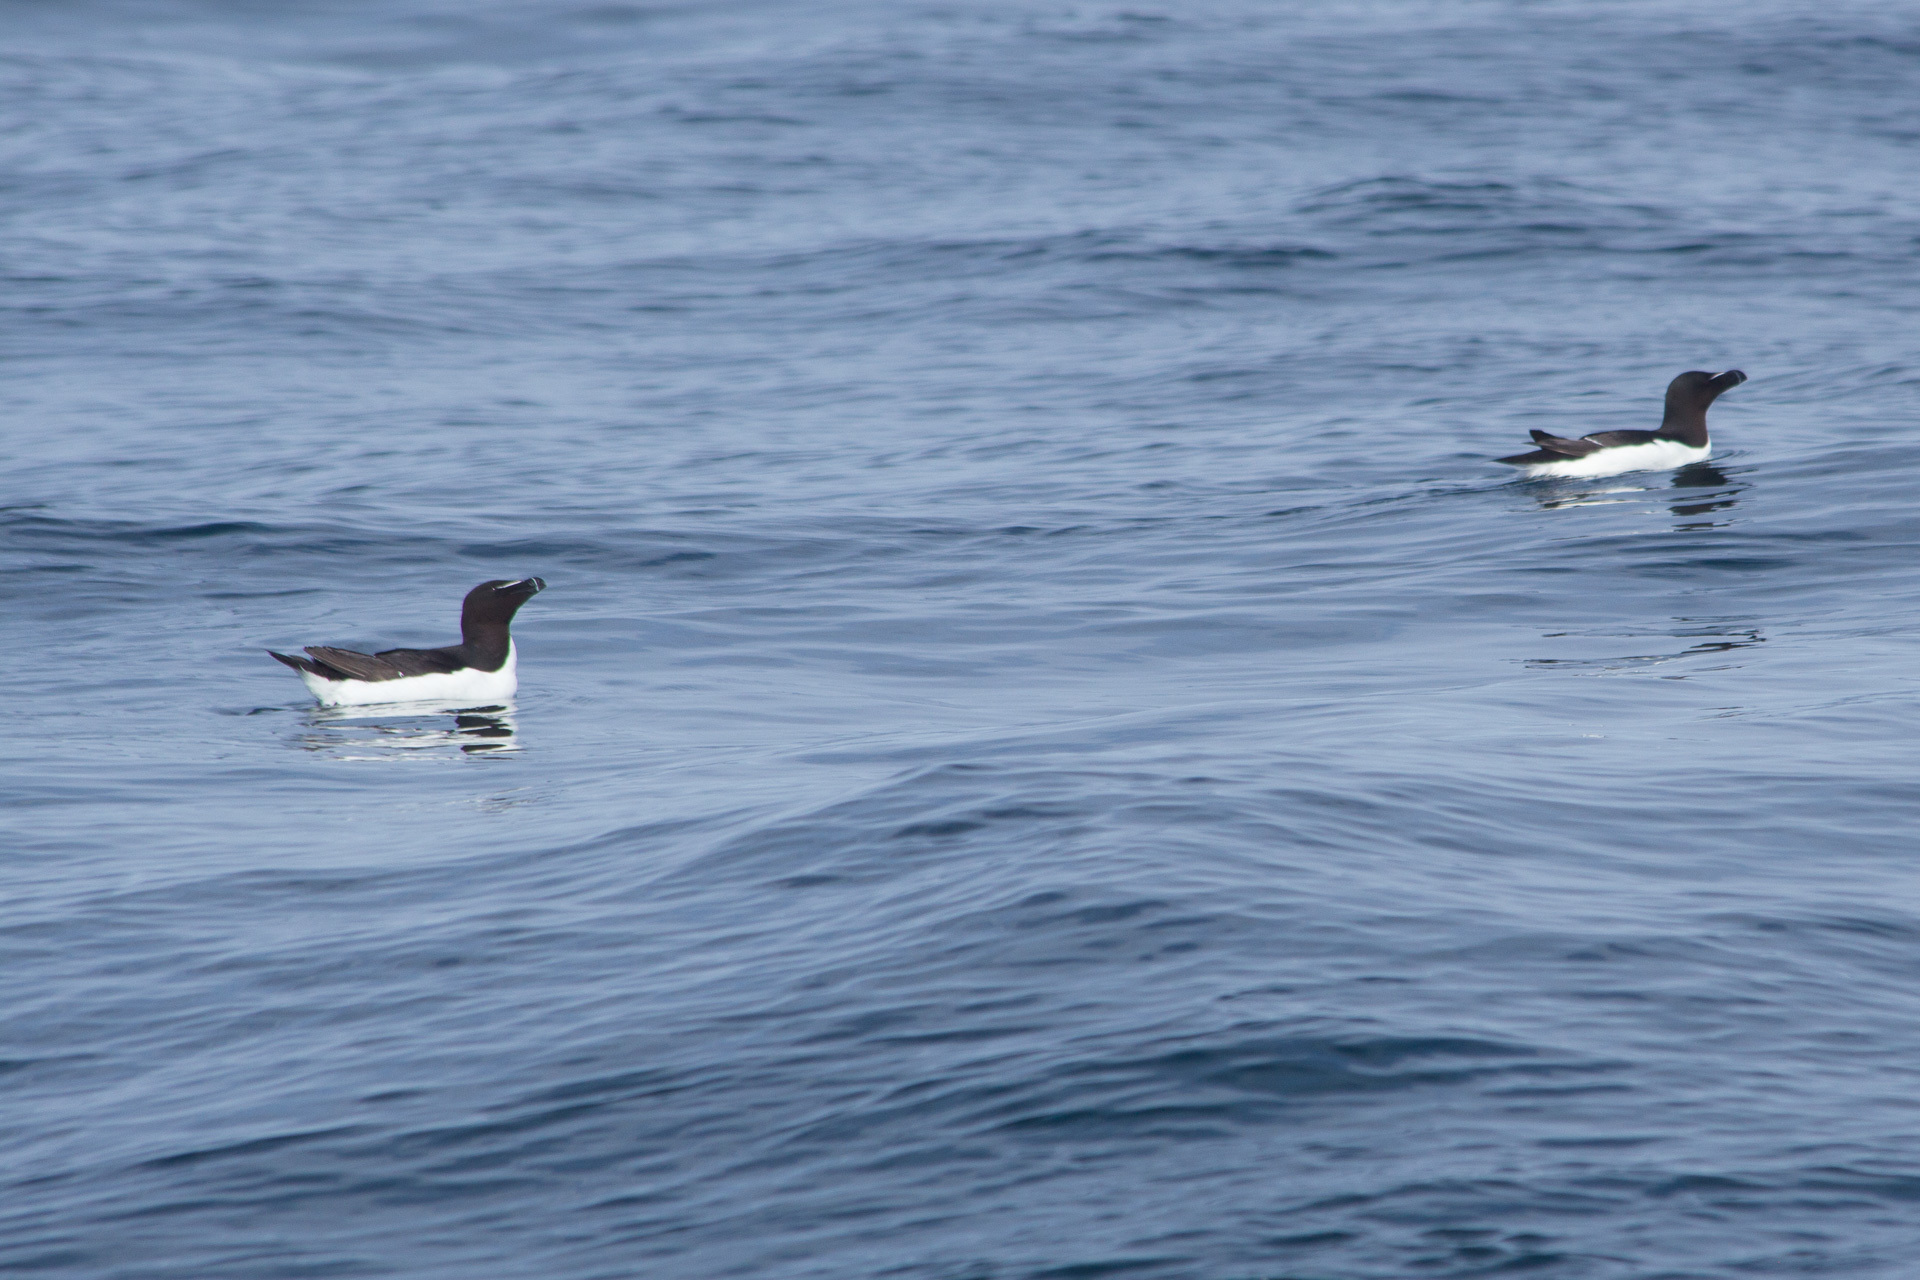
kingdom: Animalia
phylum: Chordata
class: Aves
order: Charadriiformes
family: Alcidae
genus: Alca
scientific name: Alca torda
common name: Razorbill
